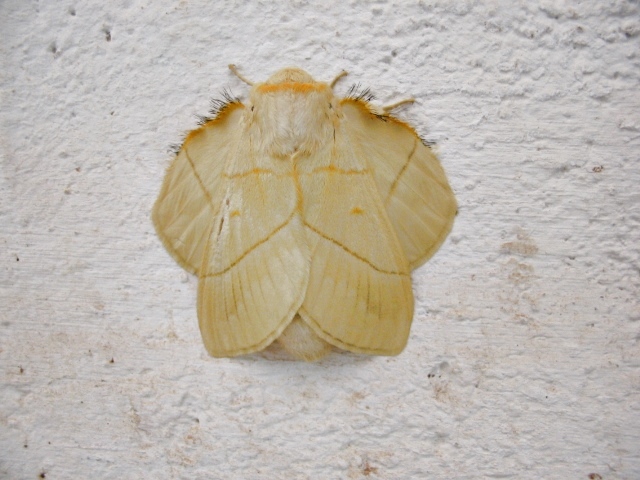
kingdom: Animalia
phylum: Arthropoda
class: Insecta
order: Lepidoptera
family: Lasiocampidae
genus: Trichopisthia
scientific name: Trichopisthia monteiroi
